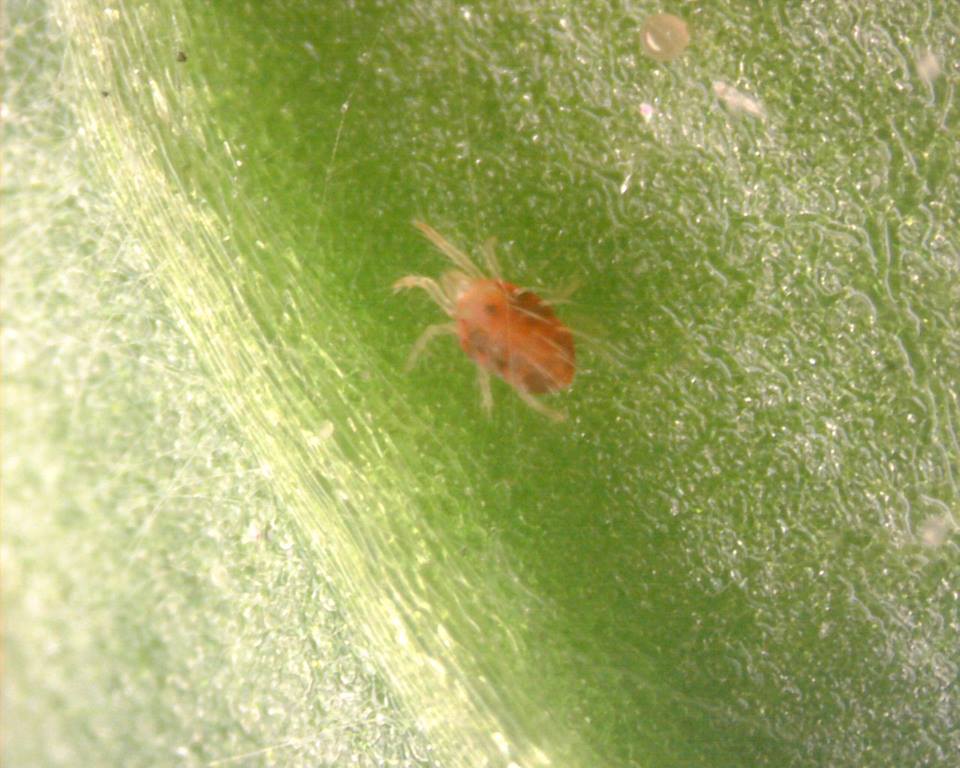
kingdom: Animalia
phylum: Arthropoda
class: Arachnida
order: Trombidiformes
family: Tetranychidae
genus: Tetranychus
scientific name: Tetranychus urticae
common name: Carmine spider mite
